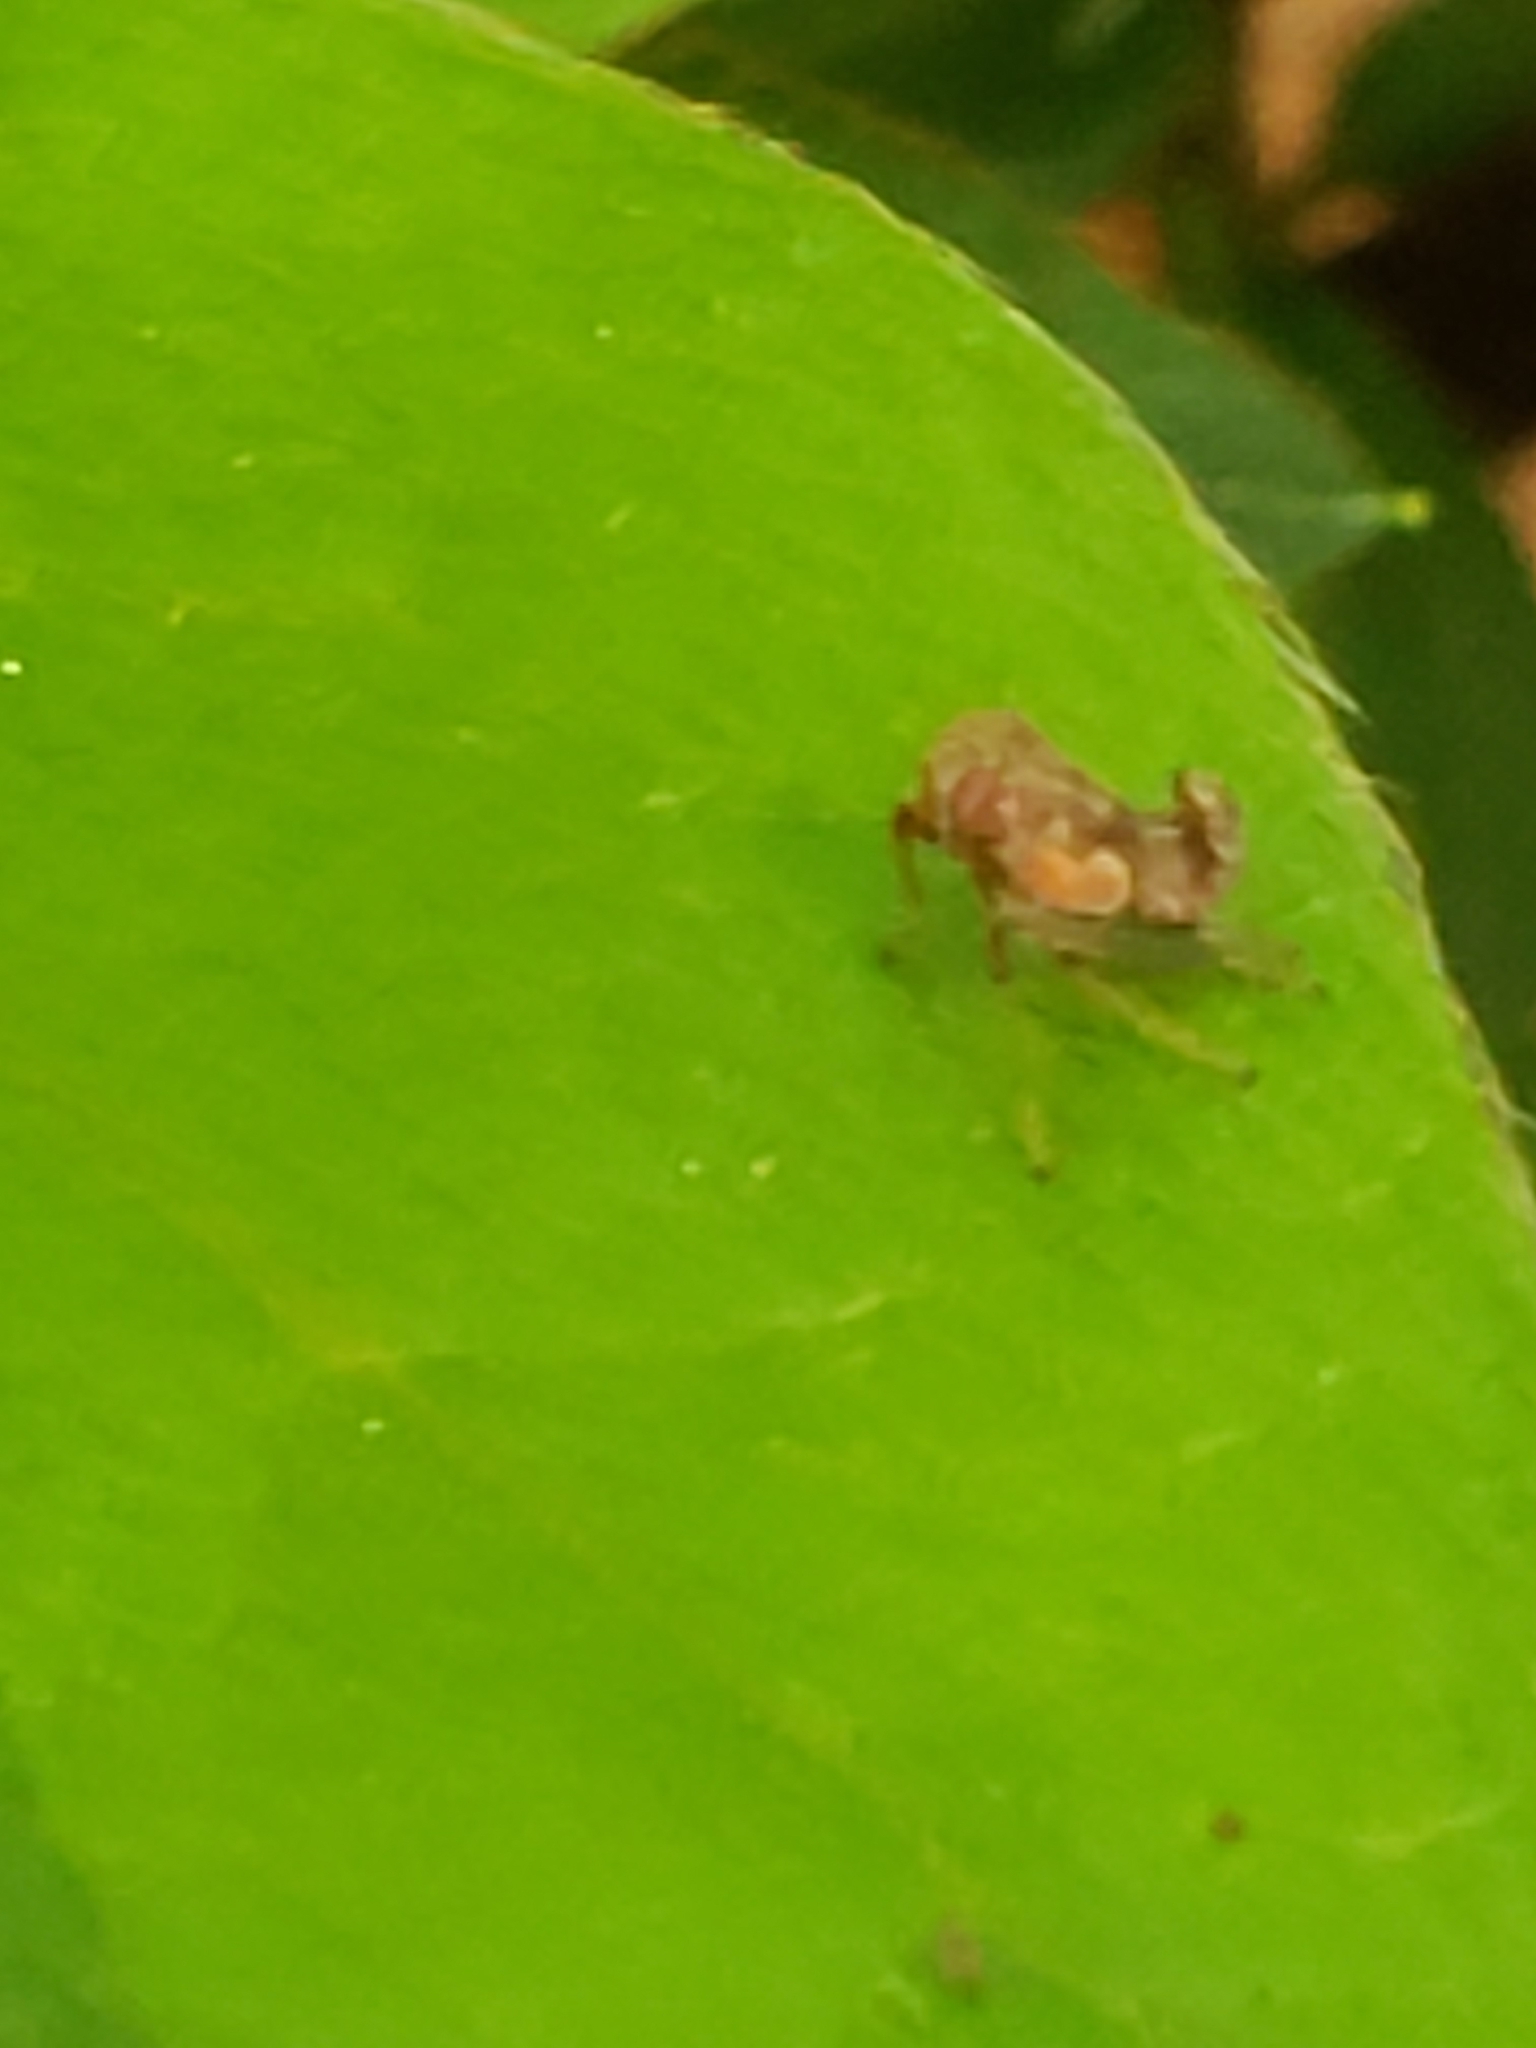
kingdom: Animalia
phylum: Arthropoda
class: Insecta
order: Hemiptera
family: Cicadellidae
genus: Jikradia
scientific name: Jikradia olitoria
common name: Coppery leafhopper
